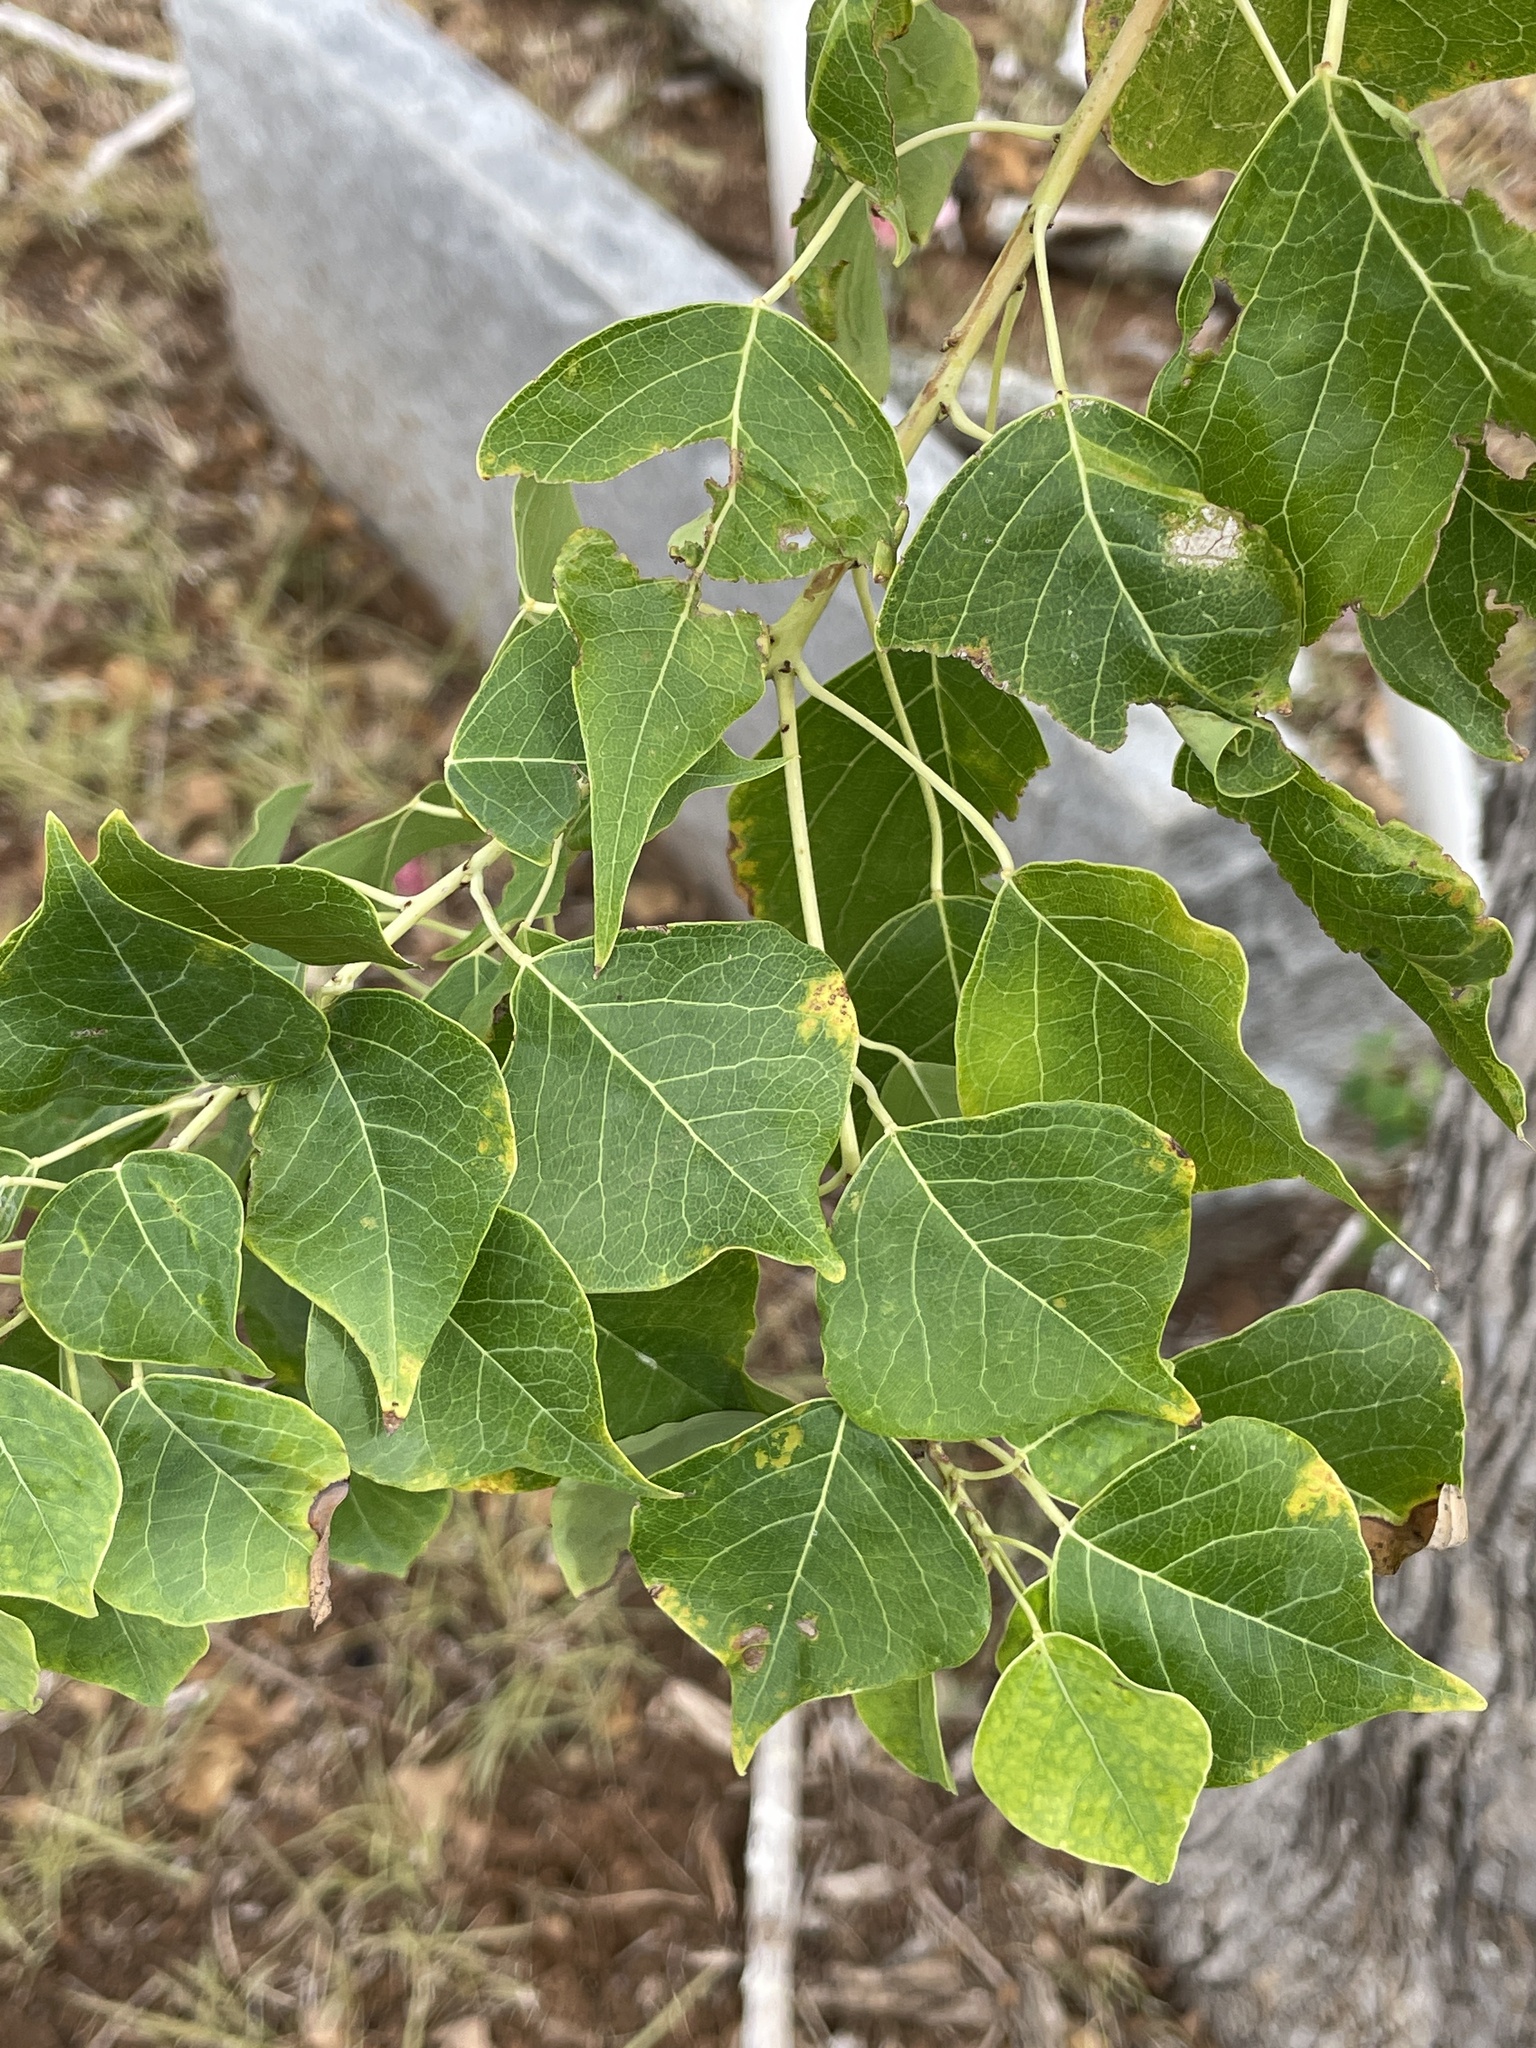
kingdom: Plantae
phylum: Tracheophyta
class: Magnoliopsida
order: Malpighiales
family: Euphorbiaceae
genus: Triadica
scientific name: Triadica sebifera
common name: Chinese tallow
